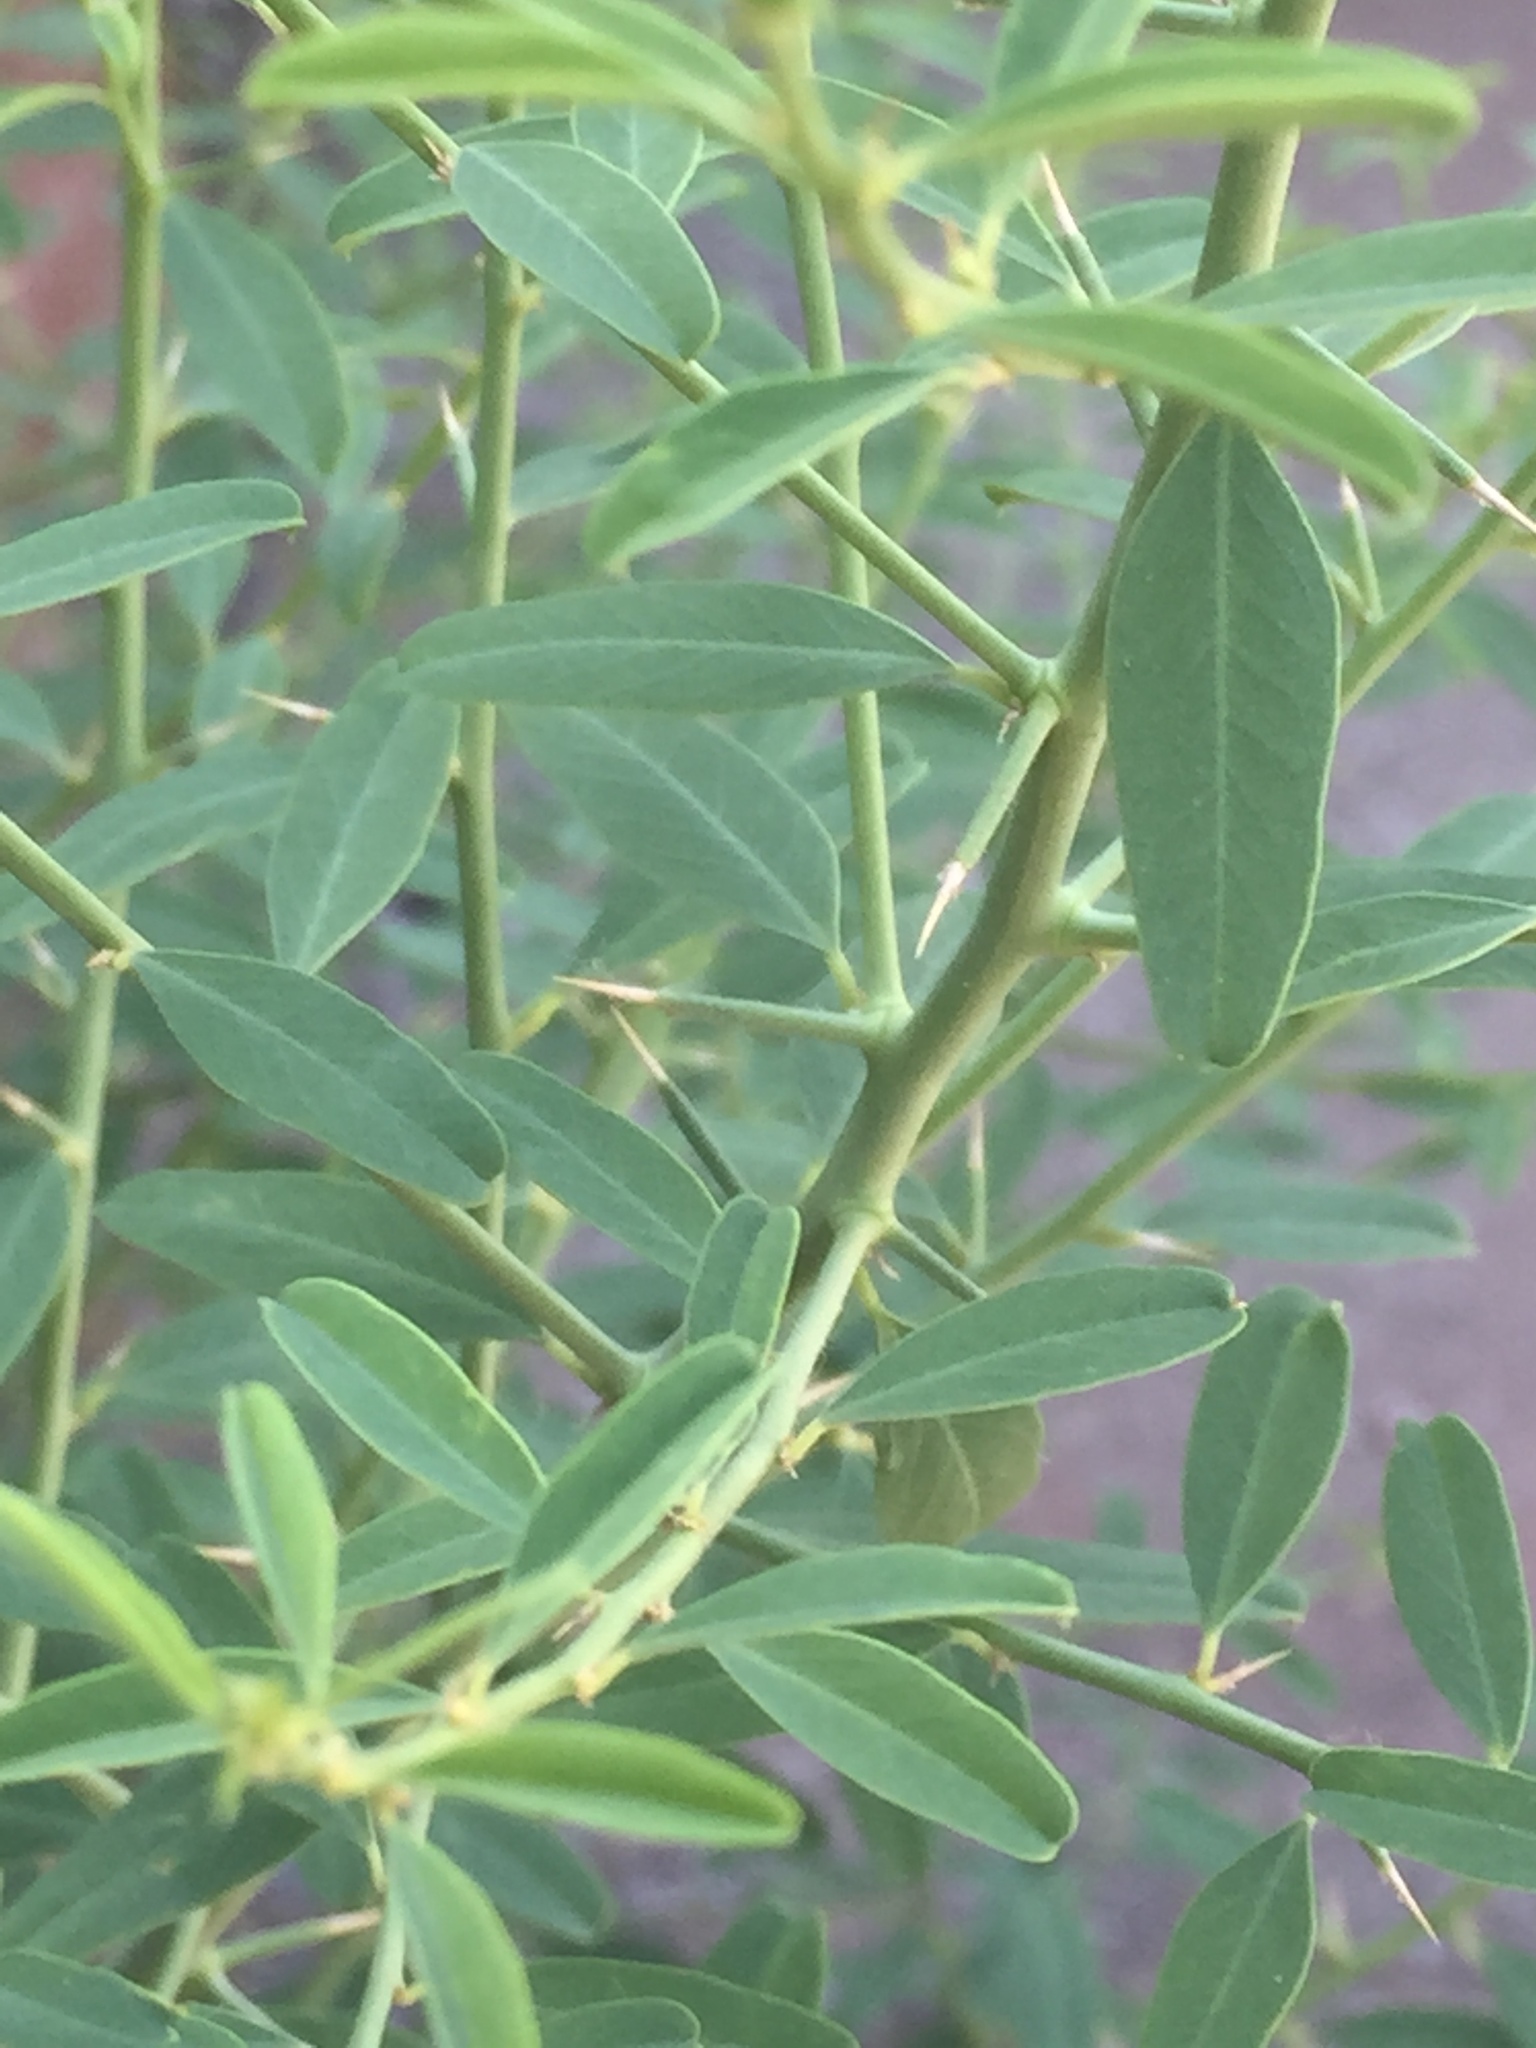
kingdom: Plantae
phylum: Tracheophyta
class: Magnoliopsida
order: Fabales
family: Fabaceae
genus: Alhagi
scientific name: Alhagi pseudalhagi
